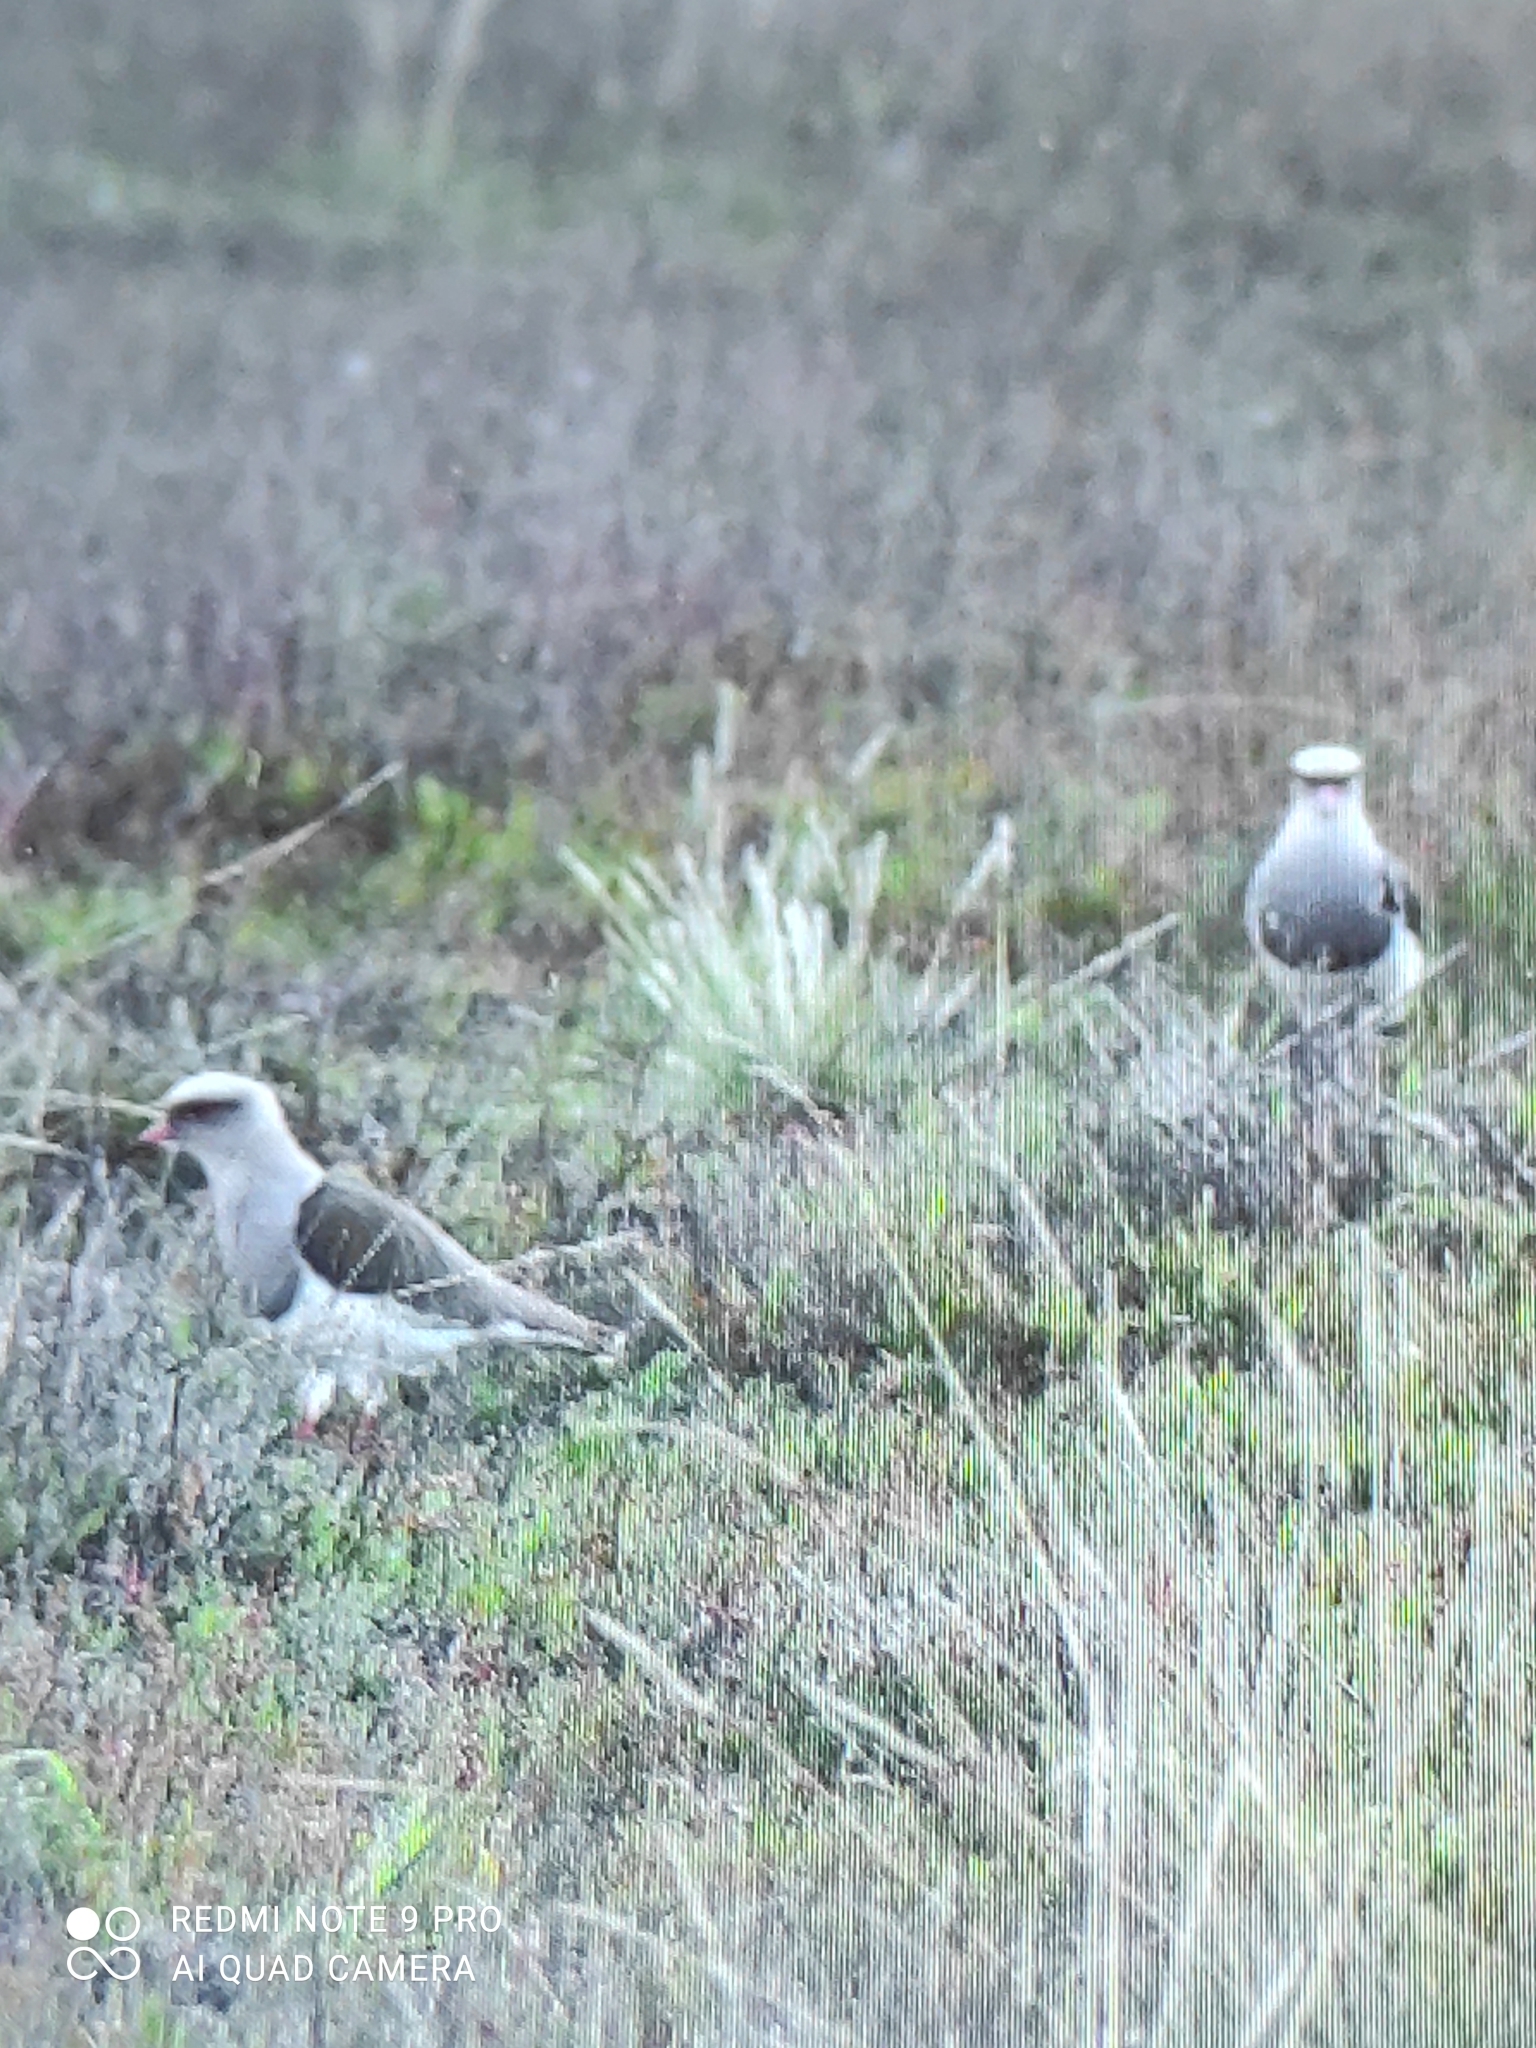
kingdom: Animalia
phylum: Chordata
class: Aves
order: Charadriiformes
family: Charadriidae
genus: Vanellus
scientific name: Vanellus resplendens
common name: Andean lapwing
